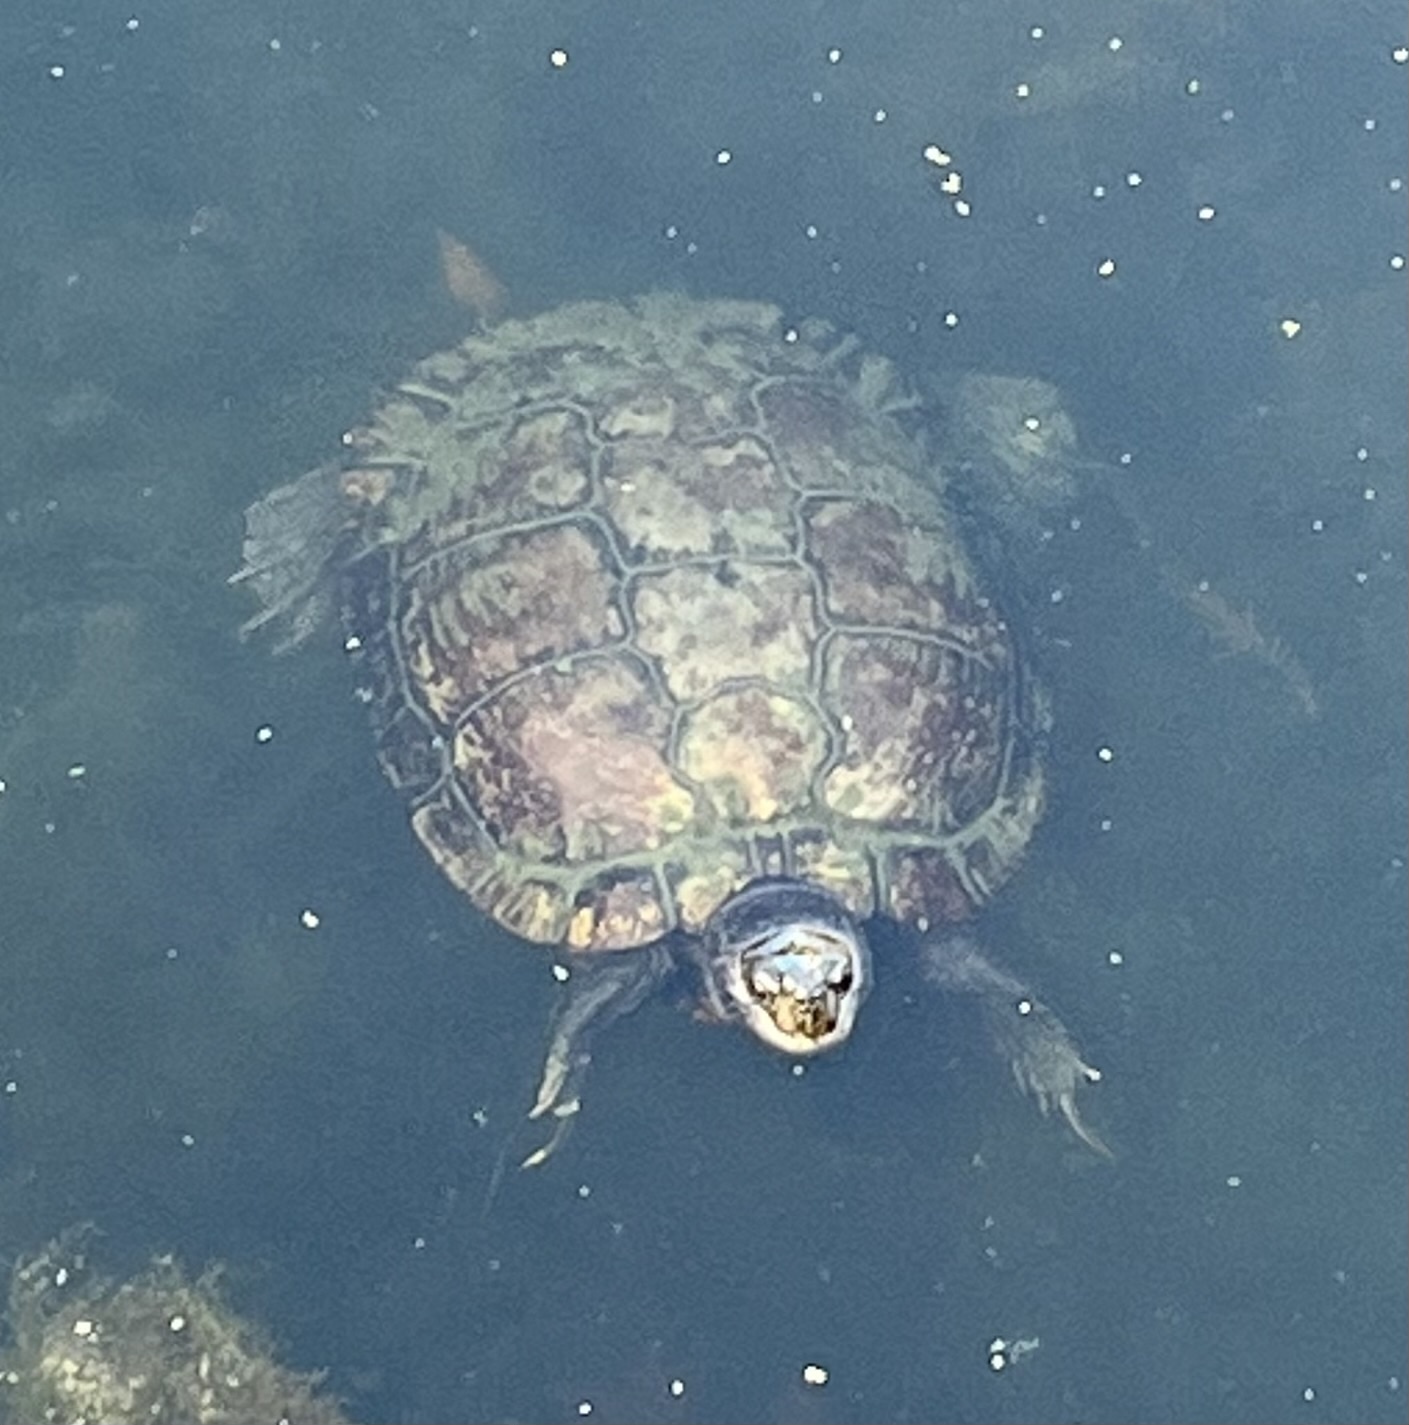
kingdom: Animalia
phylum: Chordata
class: Testudines
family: Emydidae
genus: Trachemys
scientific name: Trachemys scripta
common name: Slider
